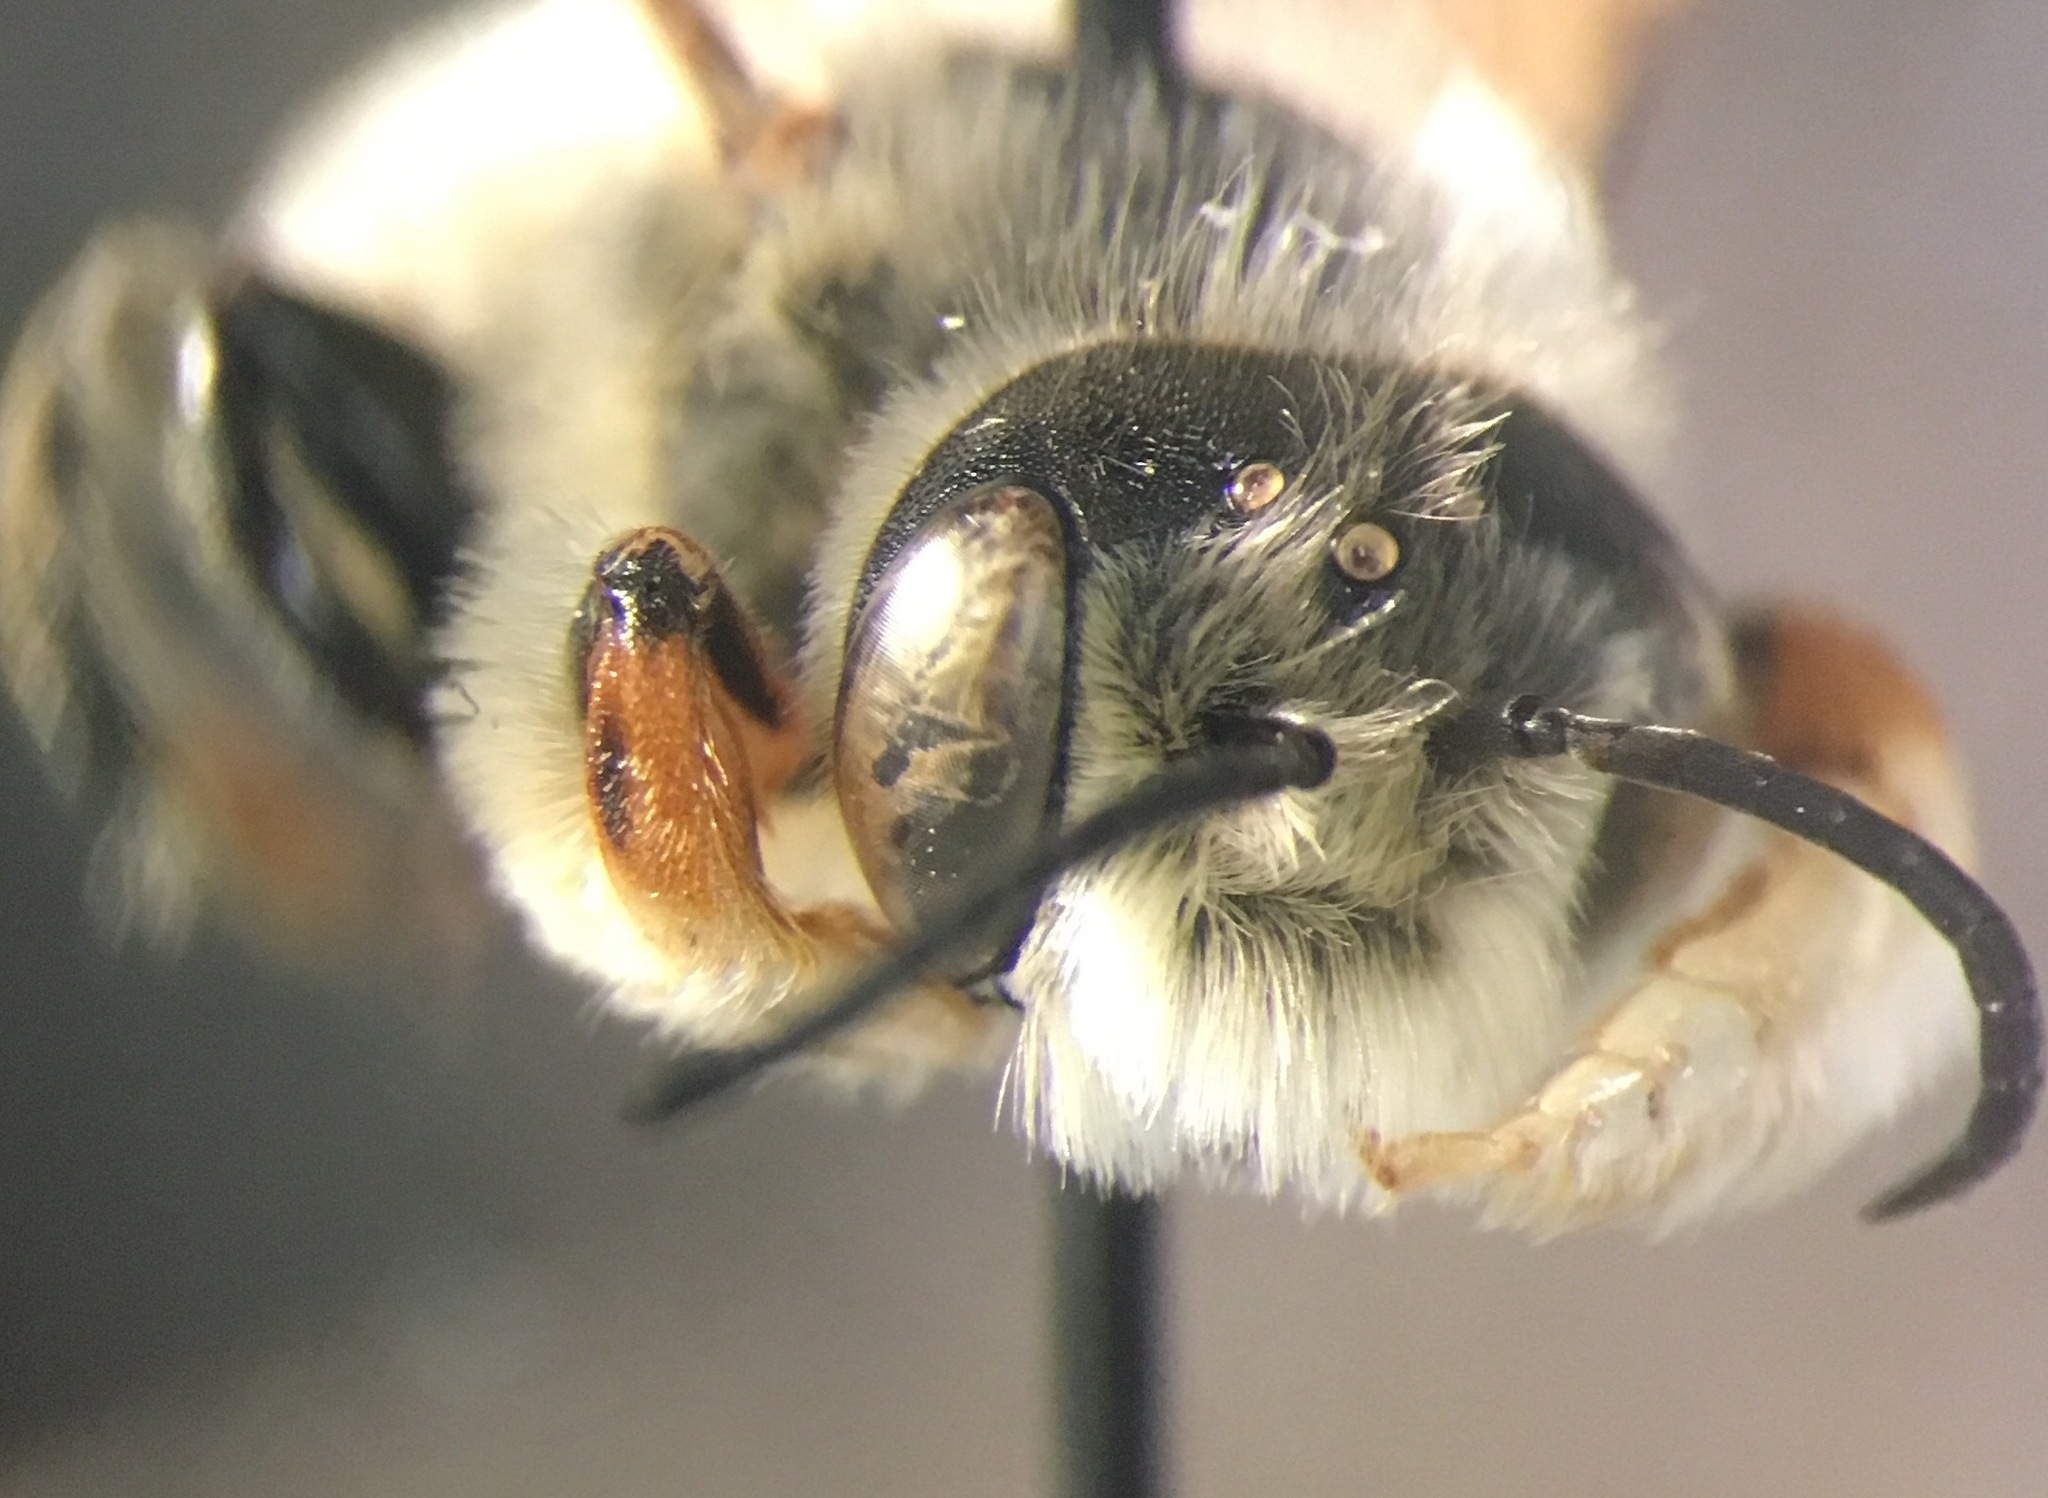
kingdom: Animalia
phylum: Arthropoda
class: Insecta
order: Hymenoptera
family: Megachilidae
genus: Megachile
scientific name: Megachile perihirta
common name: Western leafcutter
